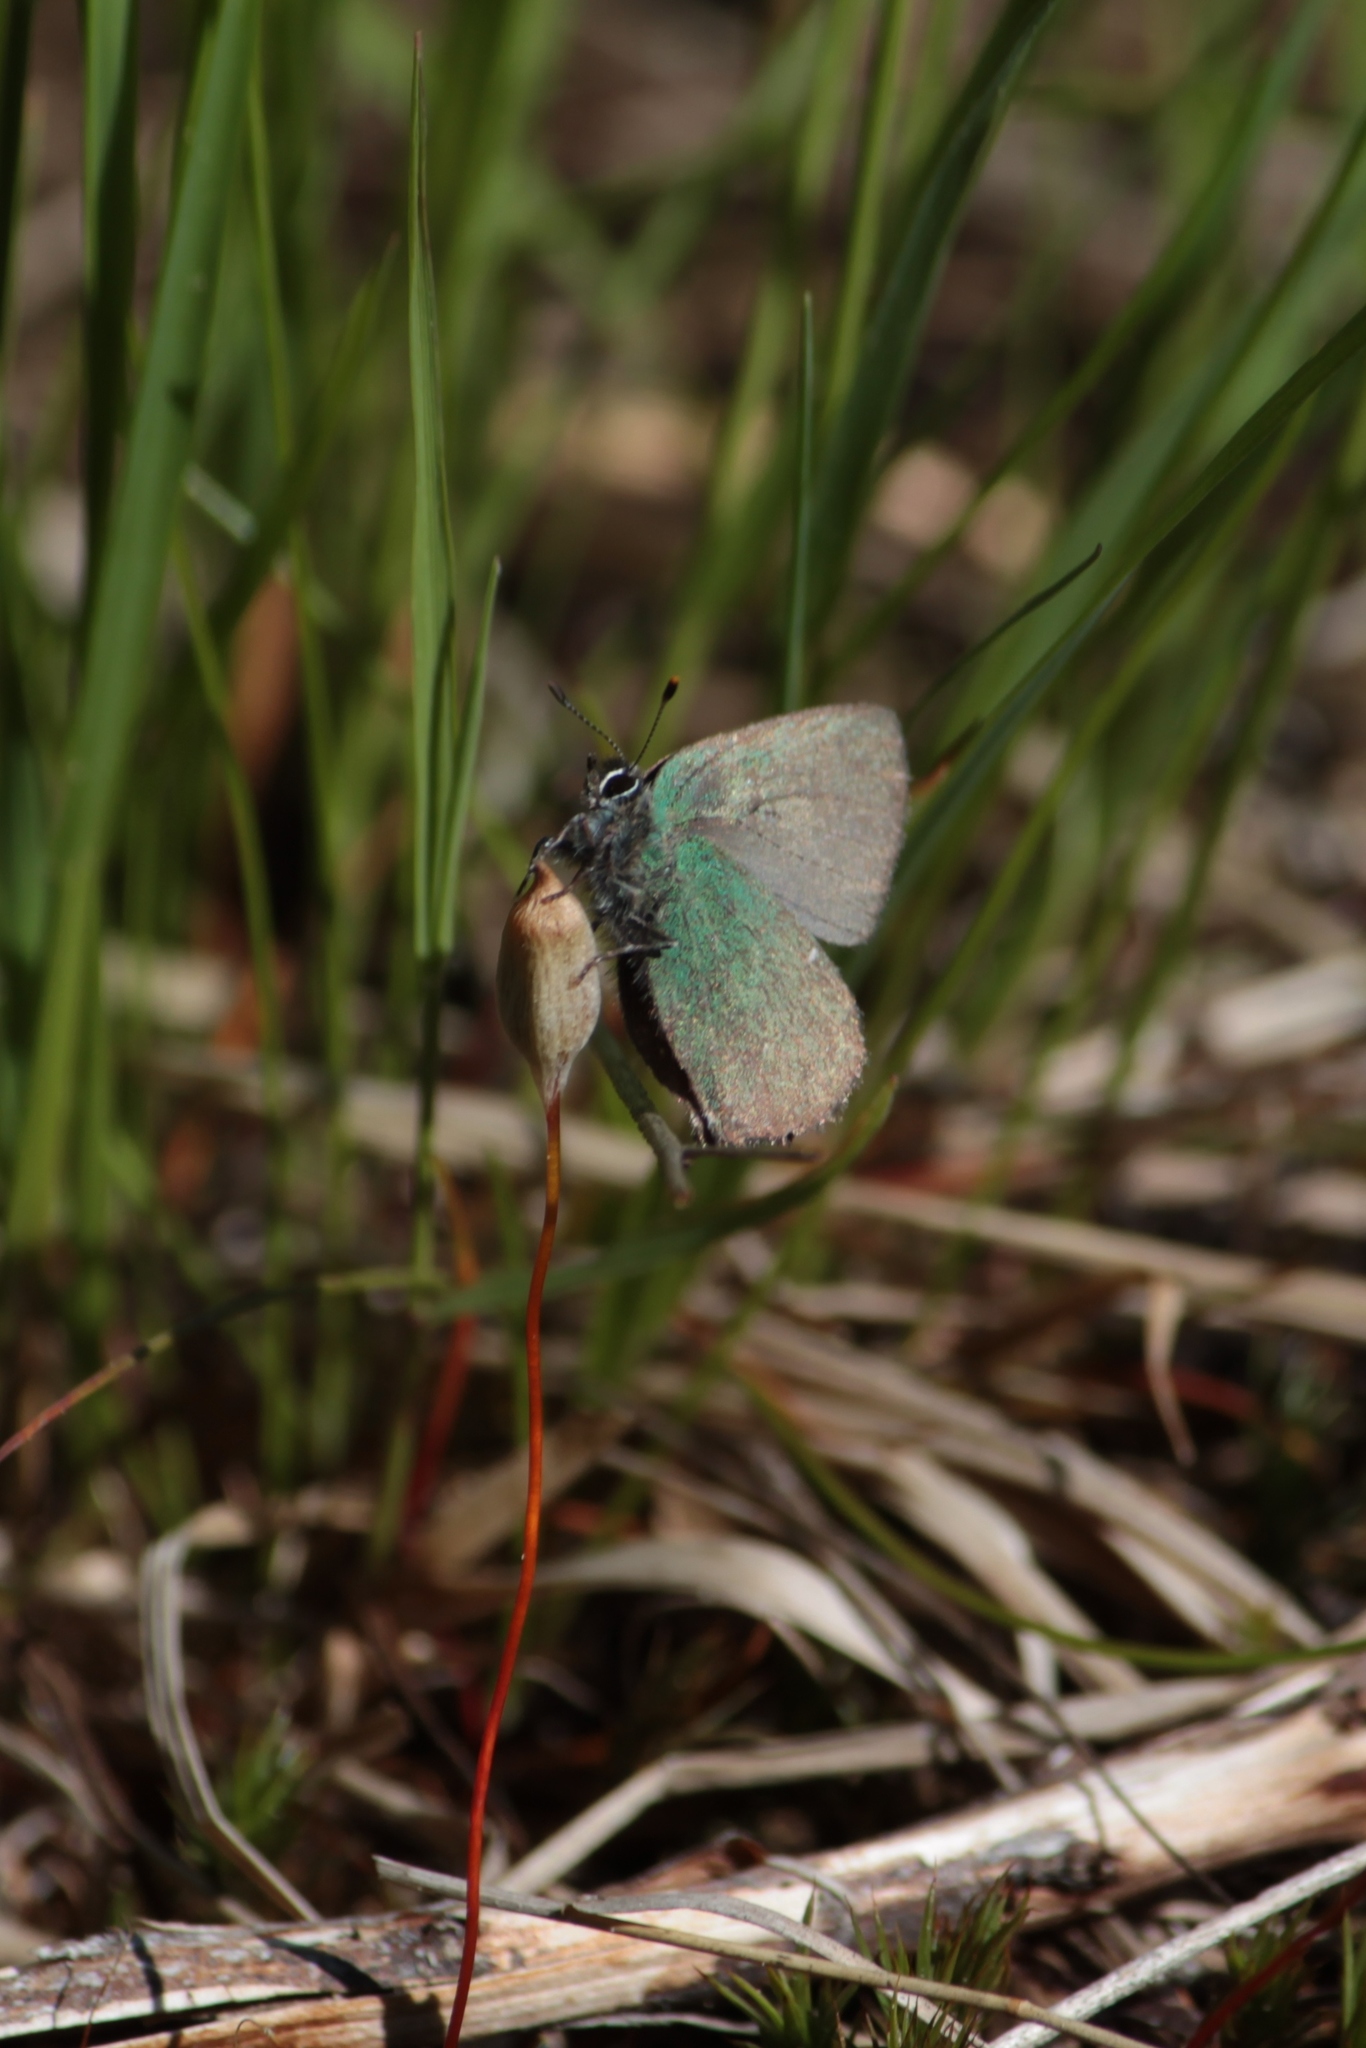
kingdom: Animalia
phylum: Arthropoda
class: Insecta
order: Lepidoptera
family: Lycaenidae
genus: Callophrys
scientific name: Callophrys rubi
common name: Green hairstreak
